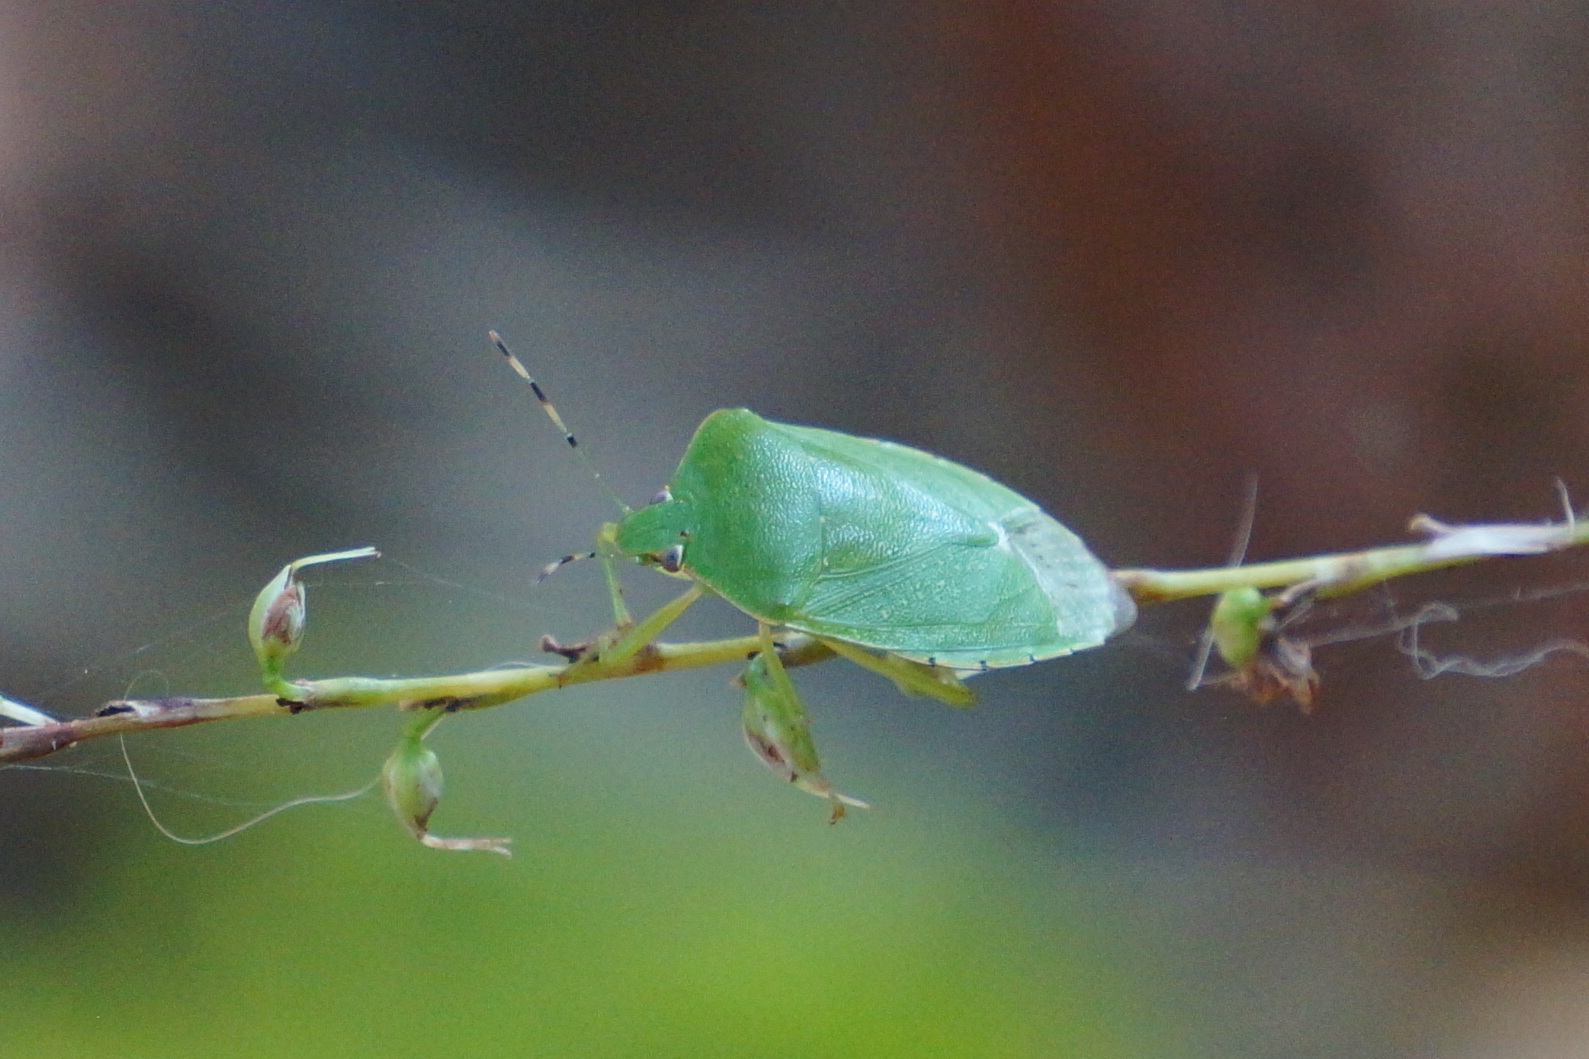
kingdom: Animalia
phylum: Arthropoda
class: Insecta
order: Hemiptera
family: Pentatomidae
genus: Chinavia
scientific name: Chinavia hilaris
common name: Green stink bug
